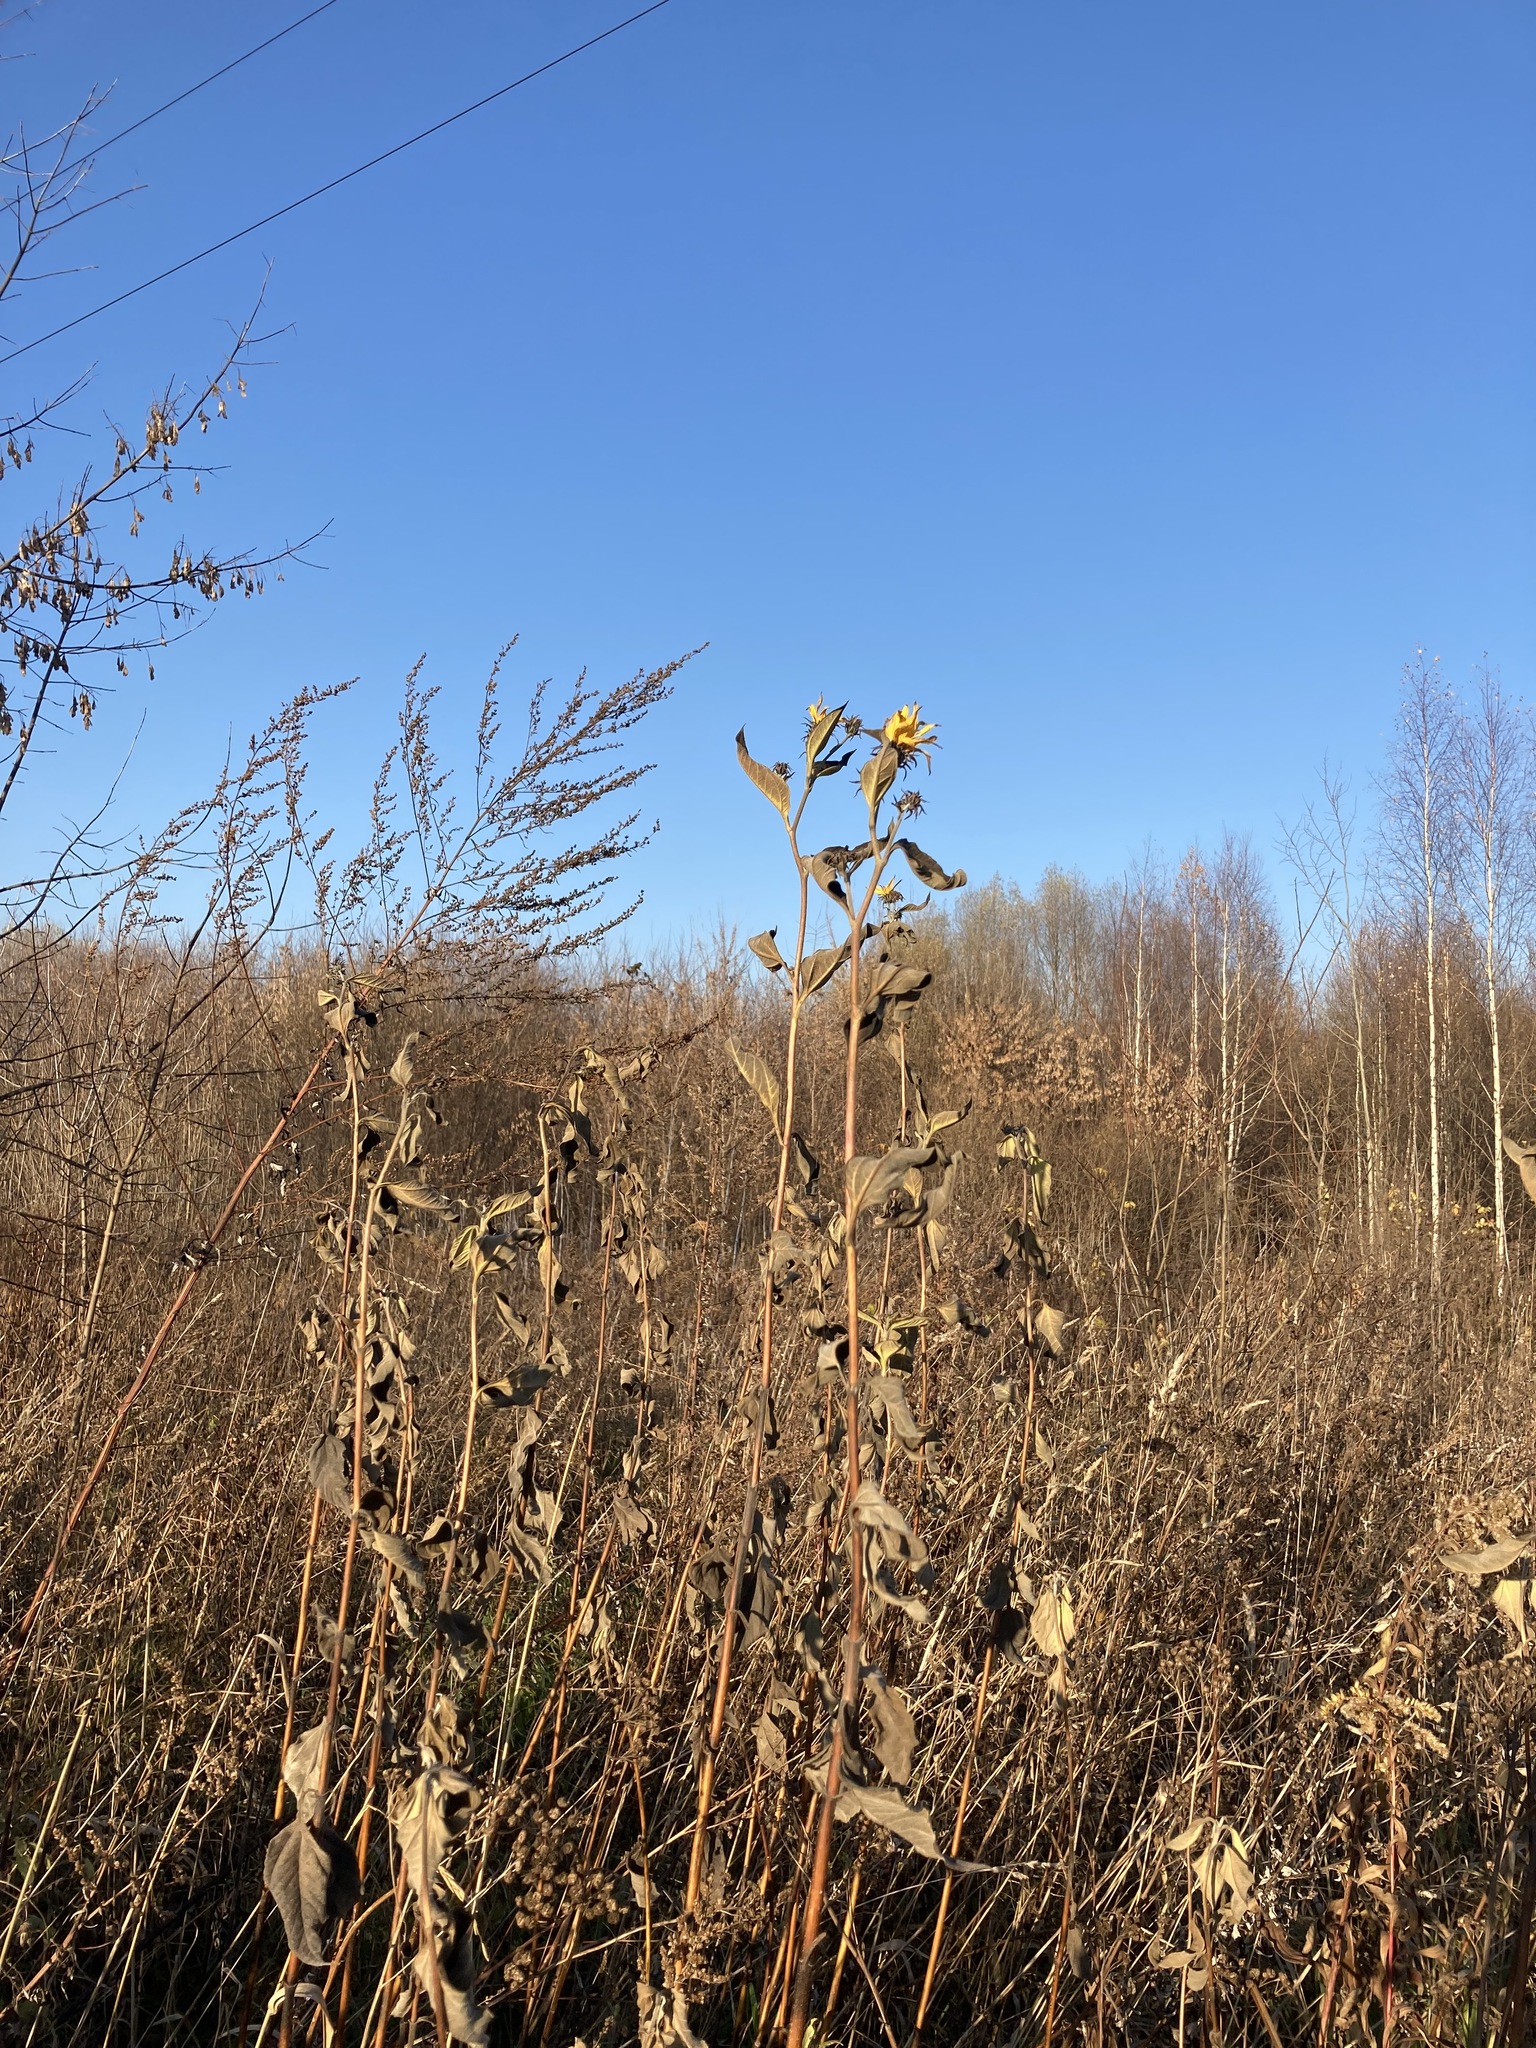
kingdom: Plantae
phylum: Tracheophyta
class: Magnoliopsida
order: Asterales
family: Asteraceae
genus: Helianthus
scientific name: Helianthus tuberosus
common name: Jerusalem artichoke
